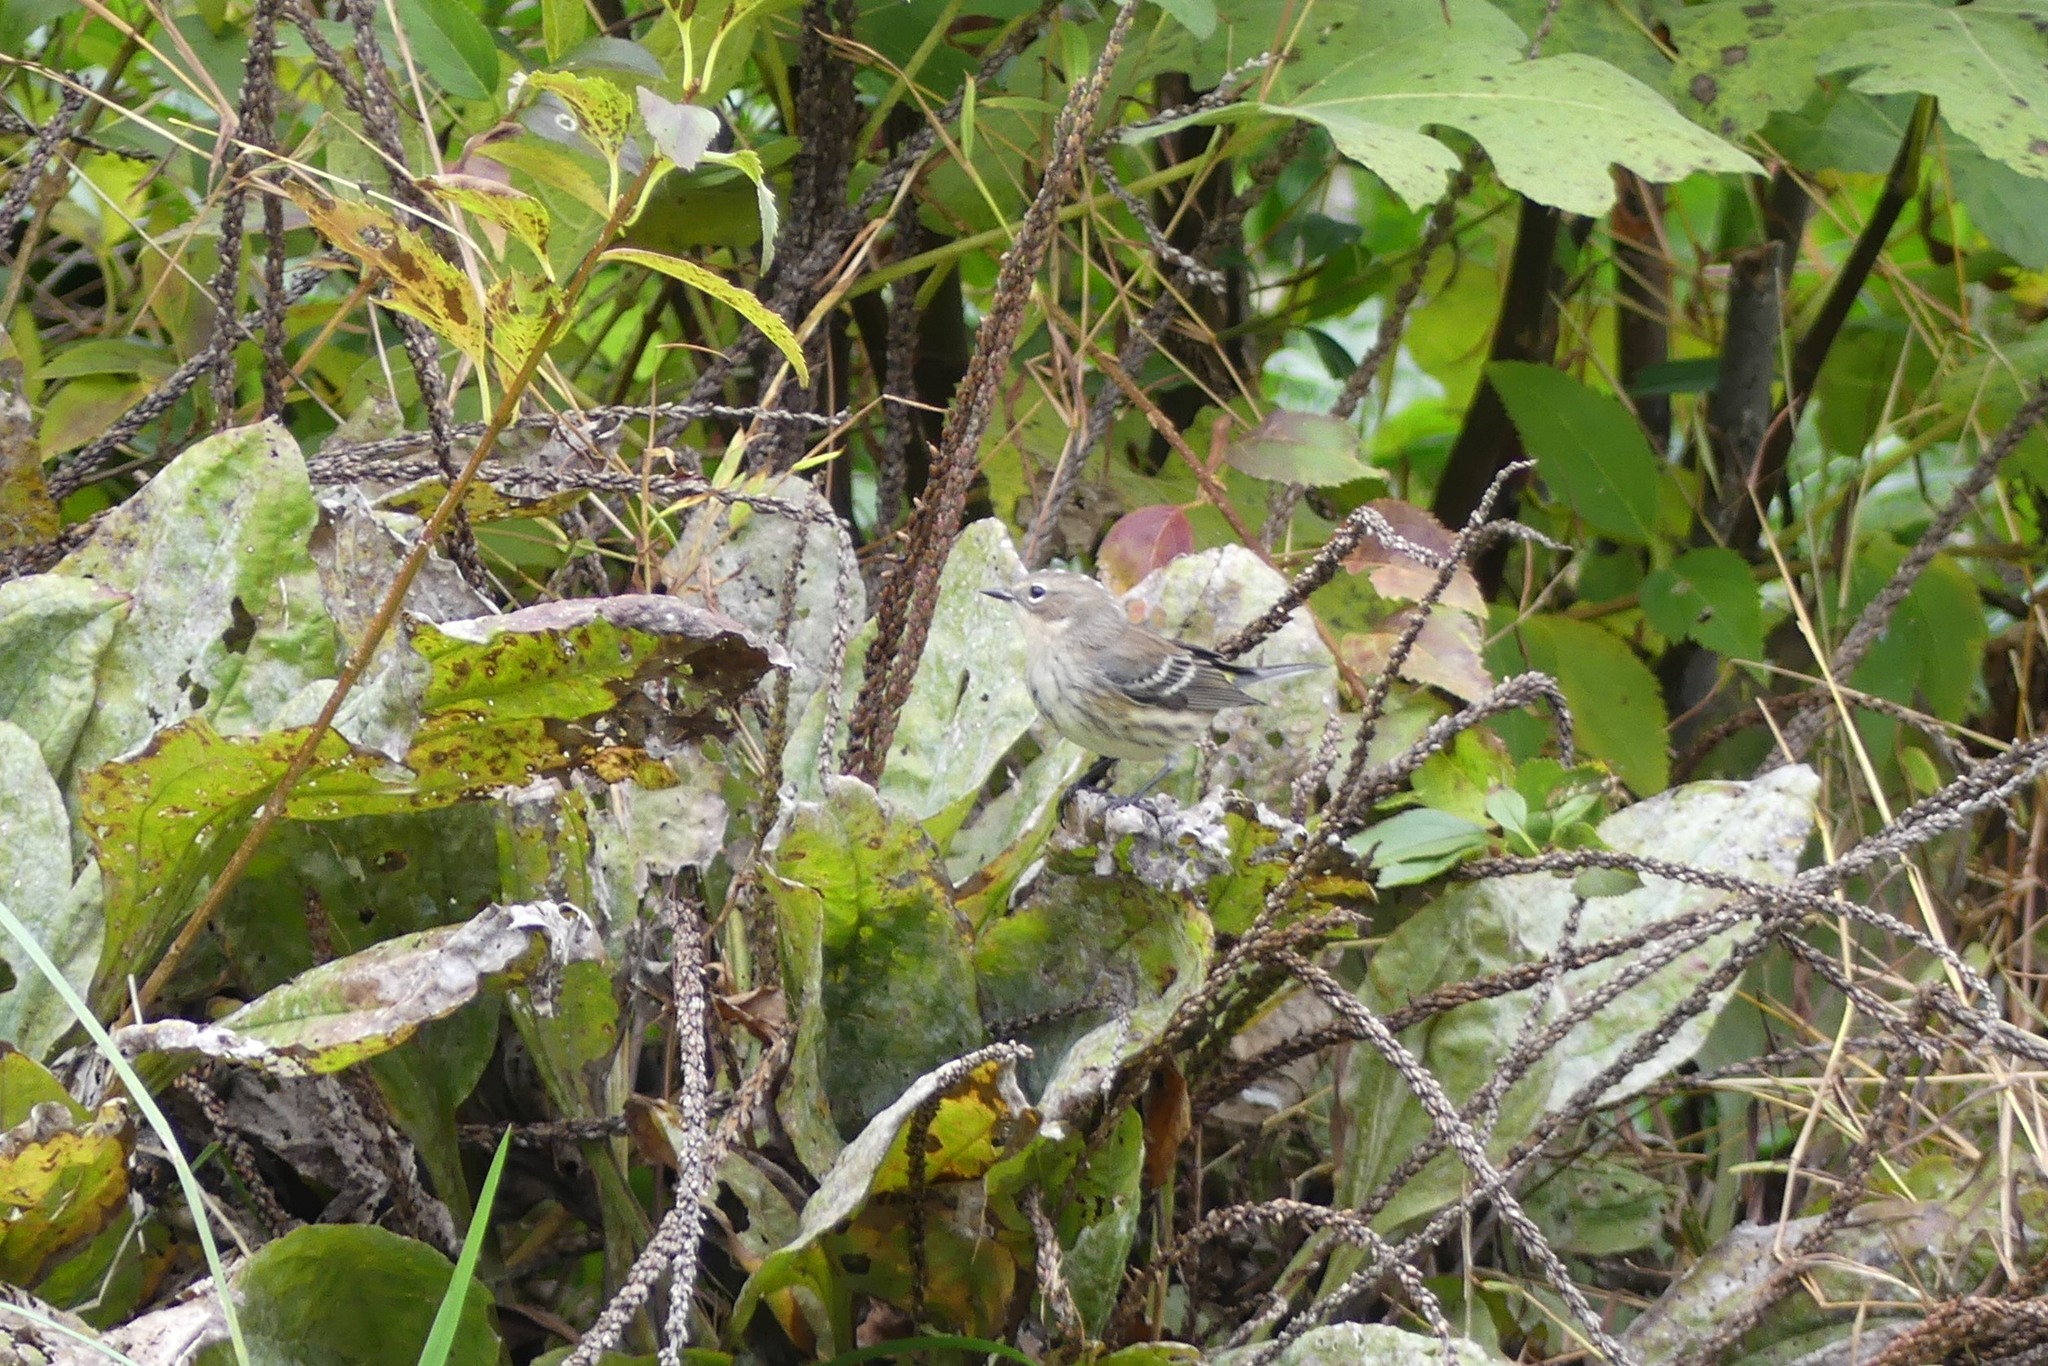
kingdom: Animalia
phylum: Chordata
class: Aves
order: Passeriformes
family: Parulidae
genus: Setophaga
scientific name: Setophaga coronata
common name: Myrtle warbler
